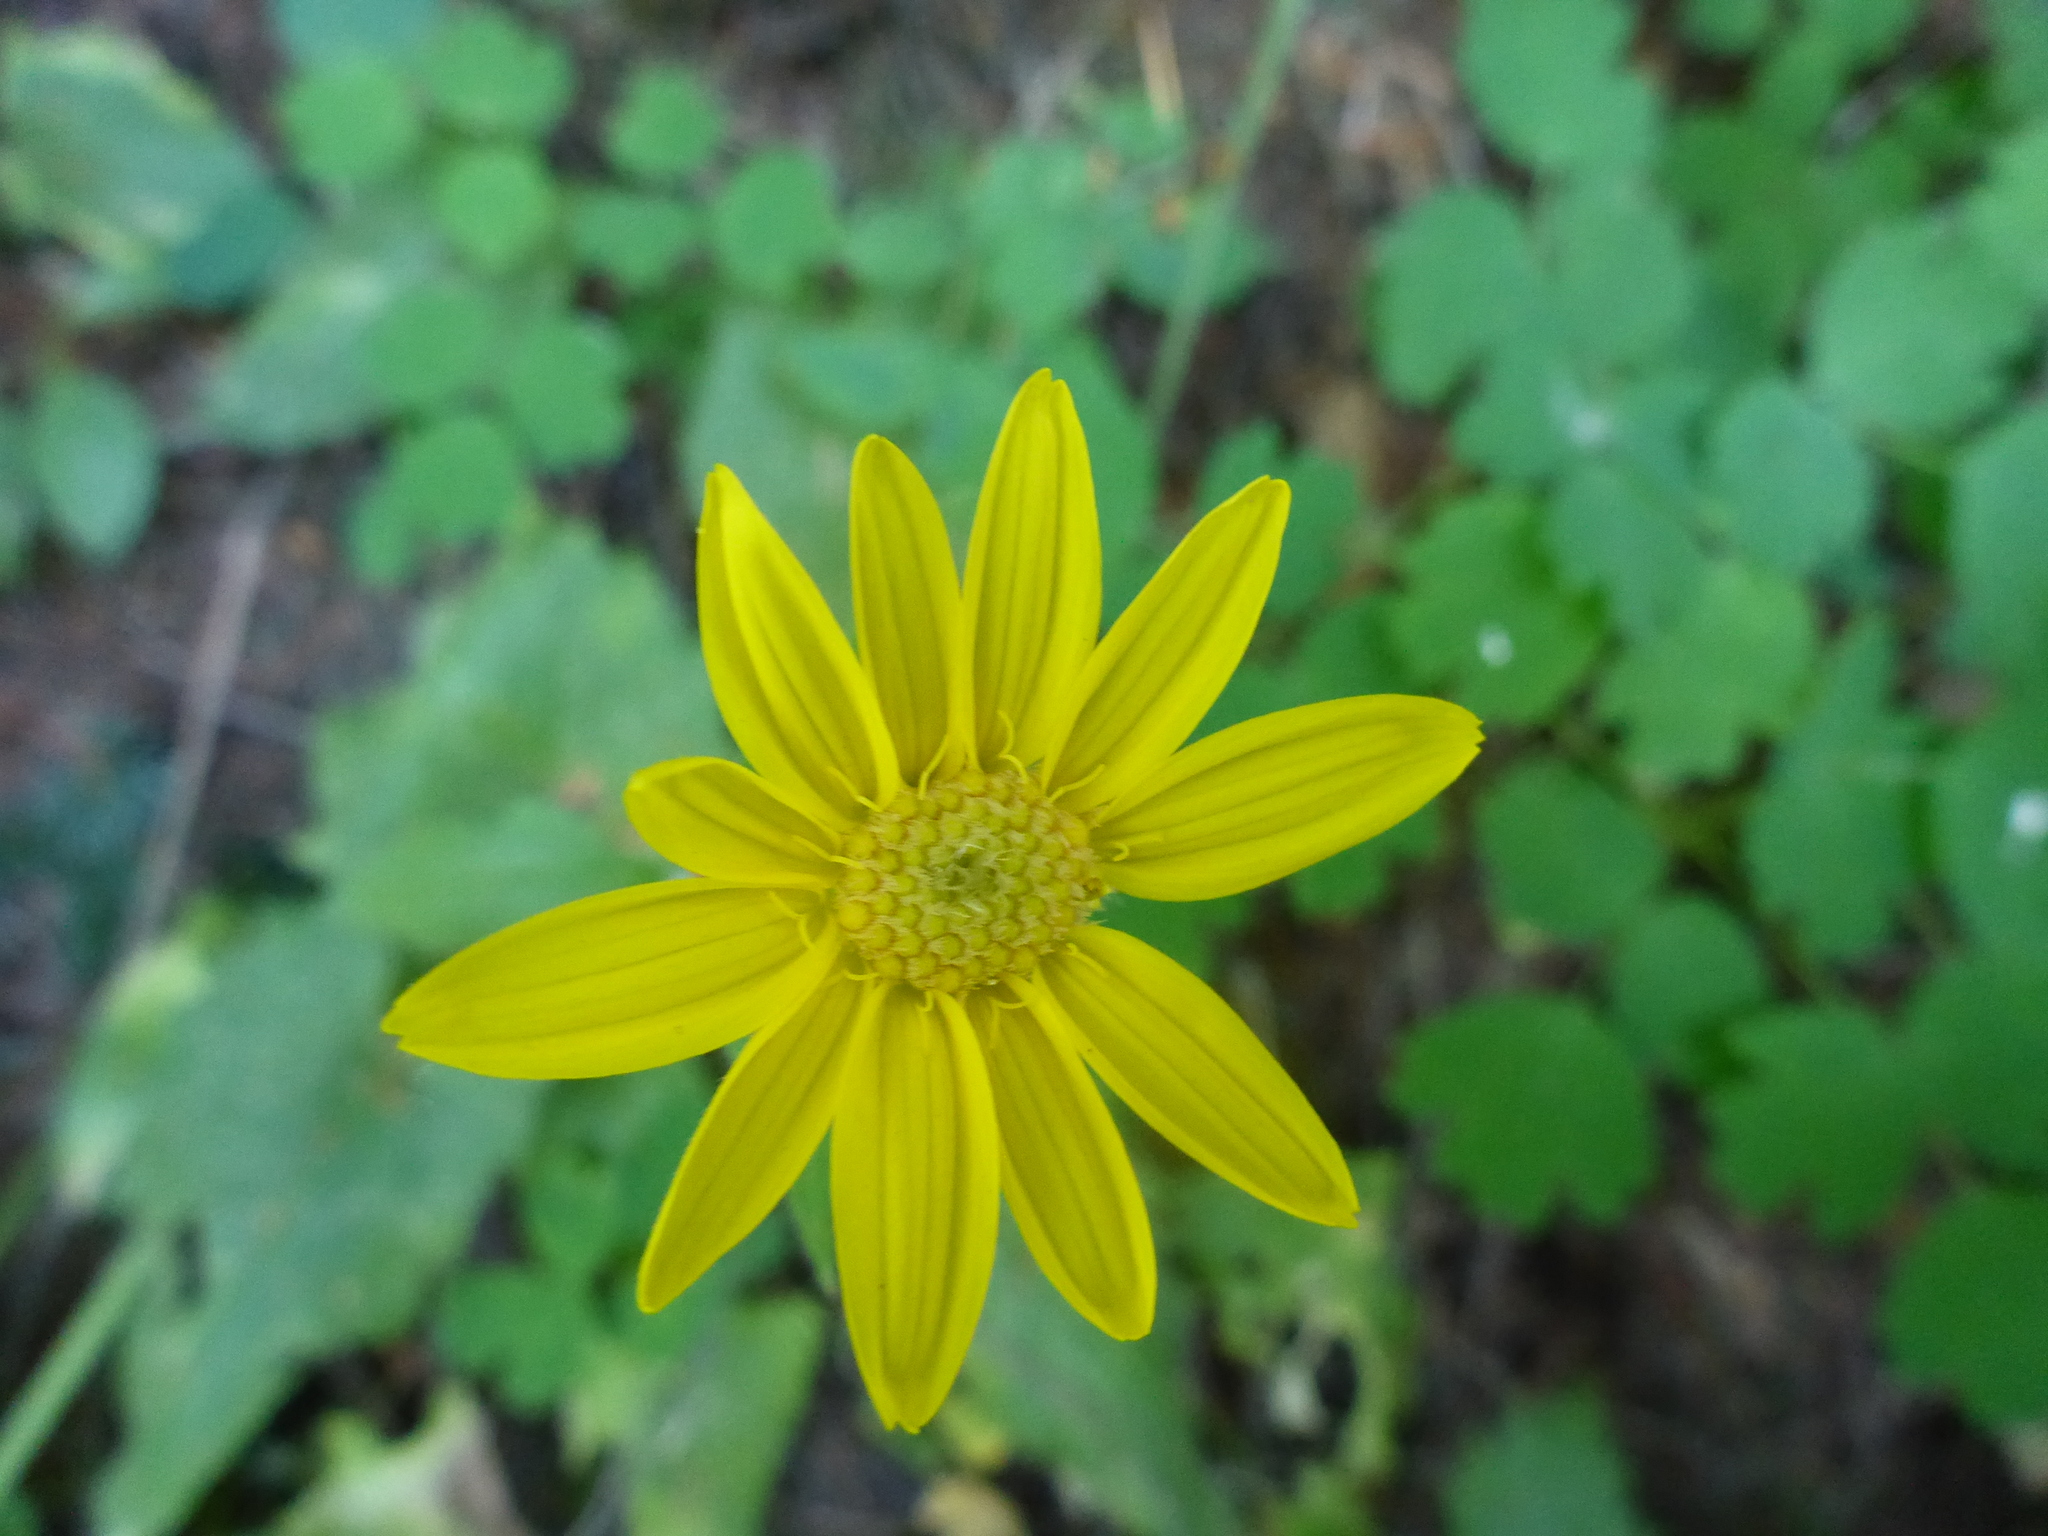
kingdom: Plantae
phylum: Tracheophyta
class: Magnoliopsida
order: Asterales
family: Asteraceae
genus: Arnica
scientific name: Arnica cordifolia
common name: Heart-leaf arnica
